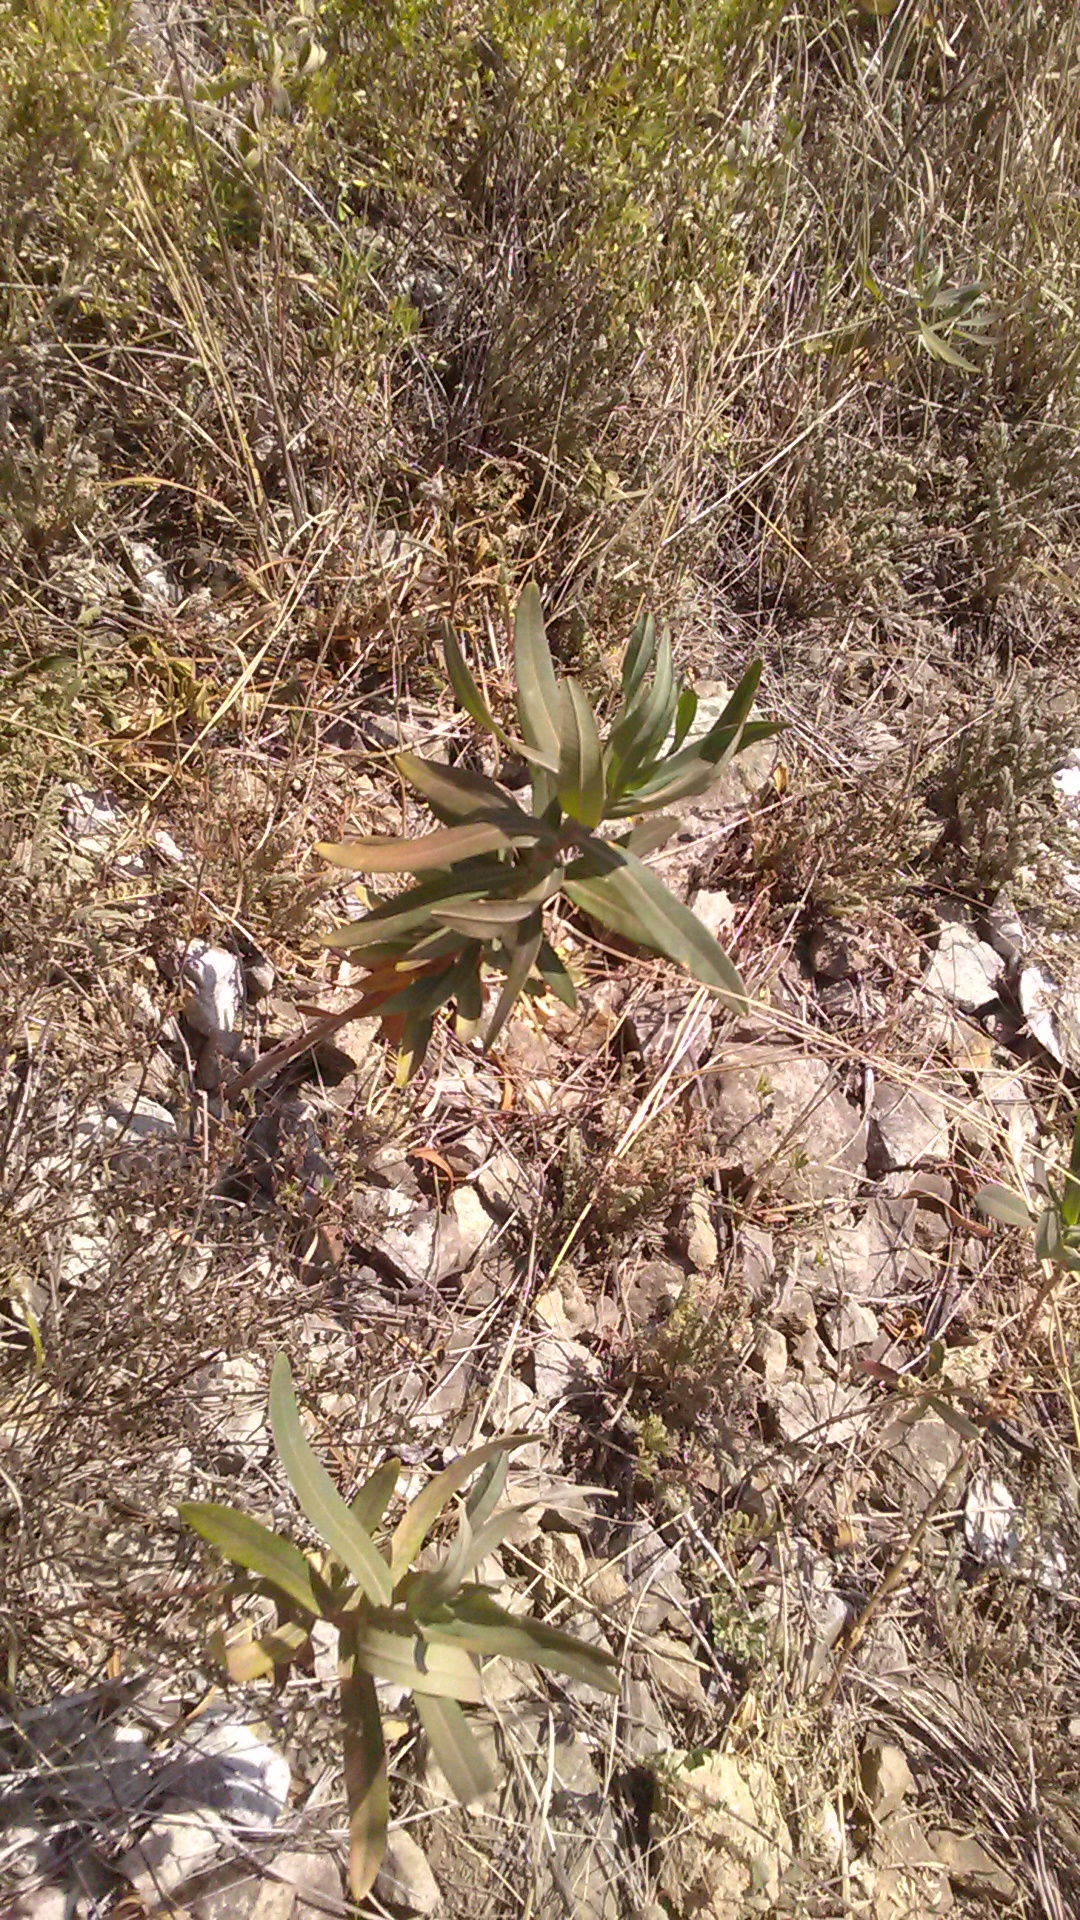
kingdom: Plantae
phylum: Tracheophyta
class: Magnoliopsida
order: Malpighiales
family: Euphorbiaceae
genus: Euphorbia
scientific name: Euphorbia iberica
